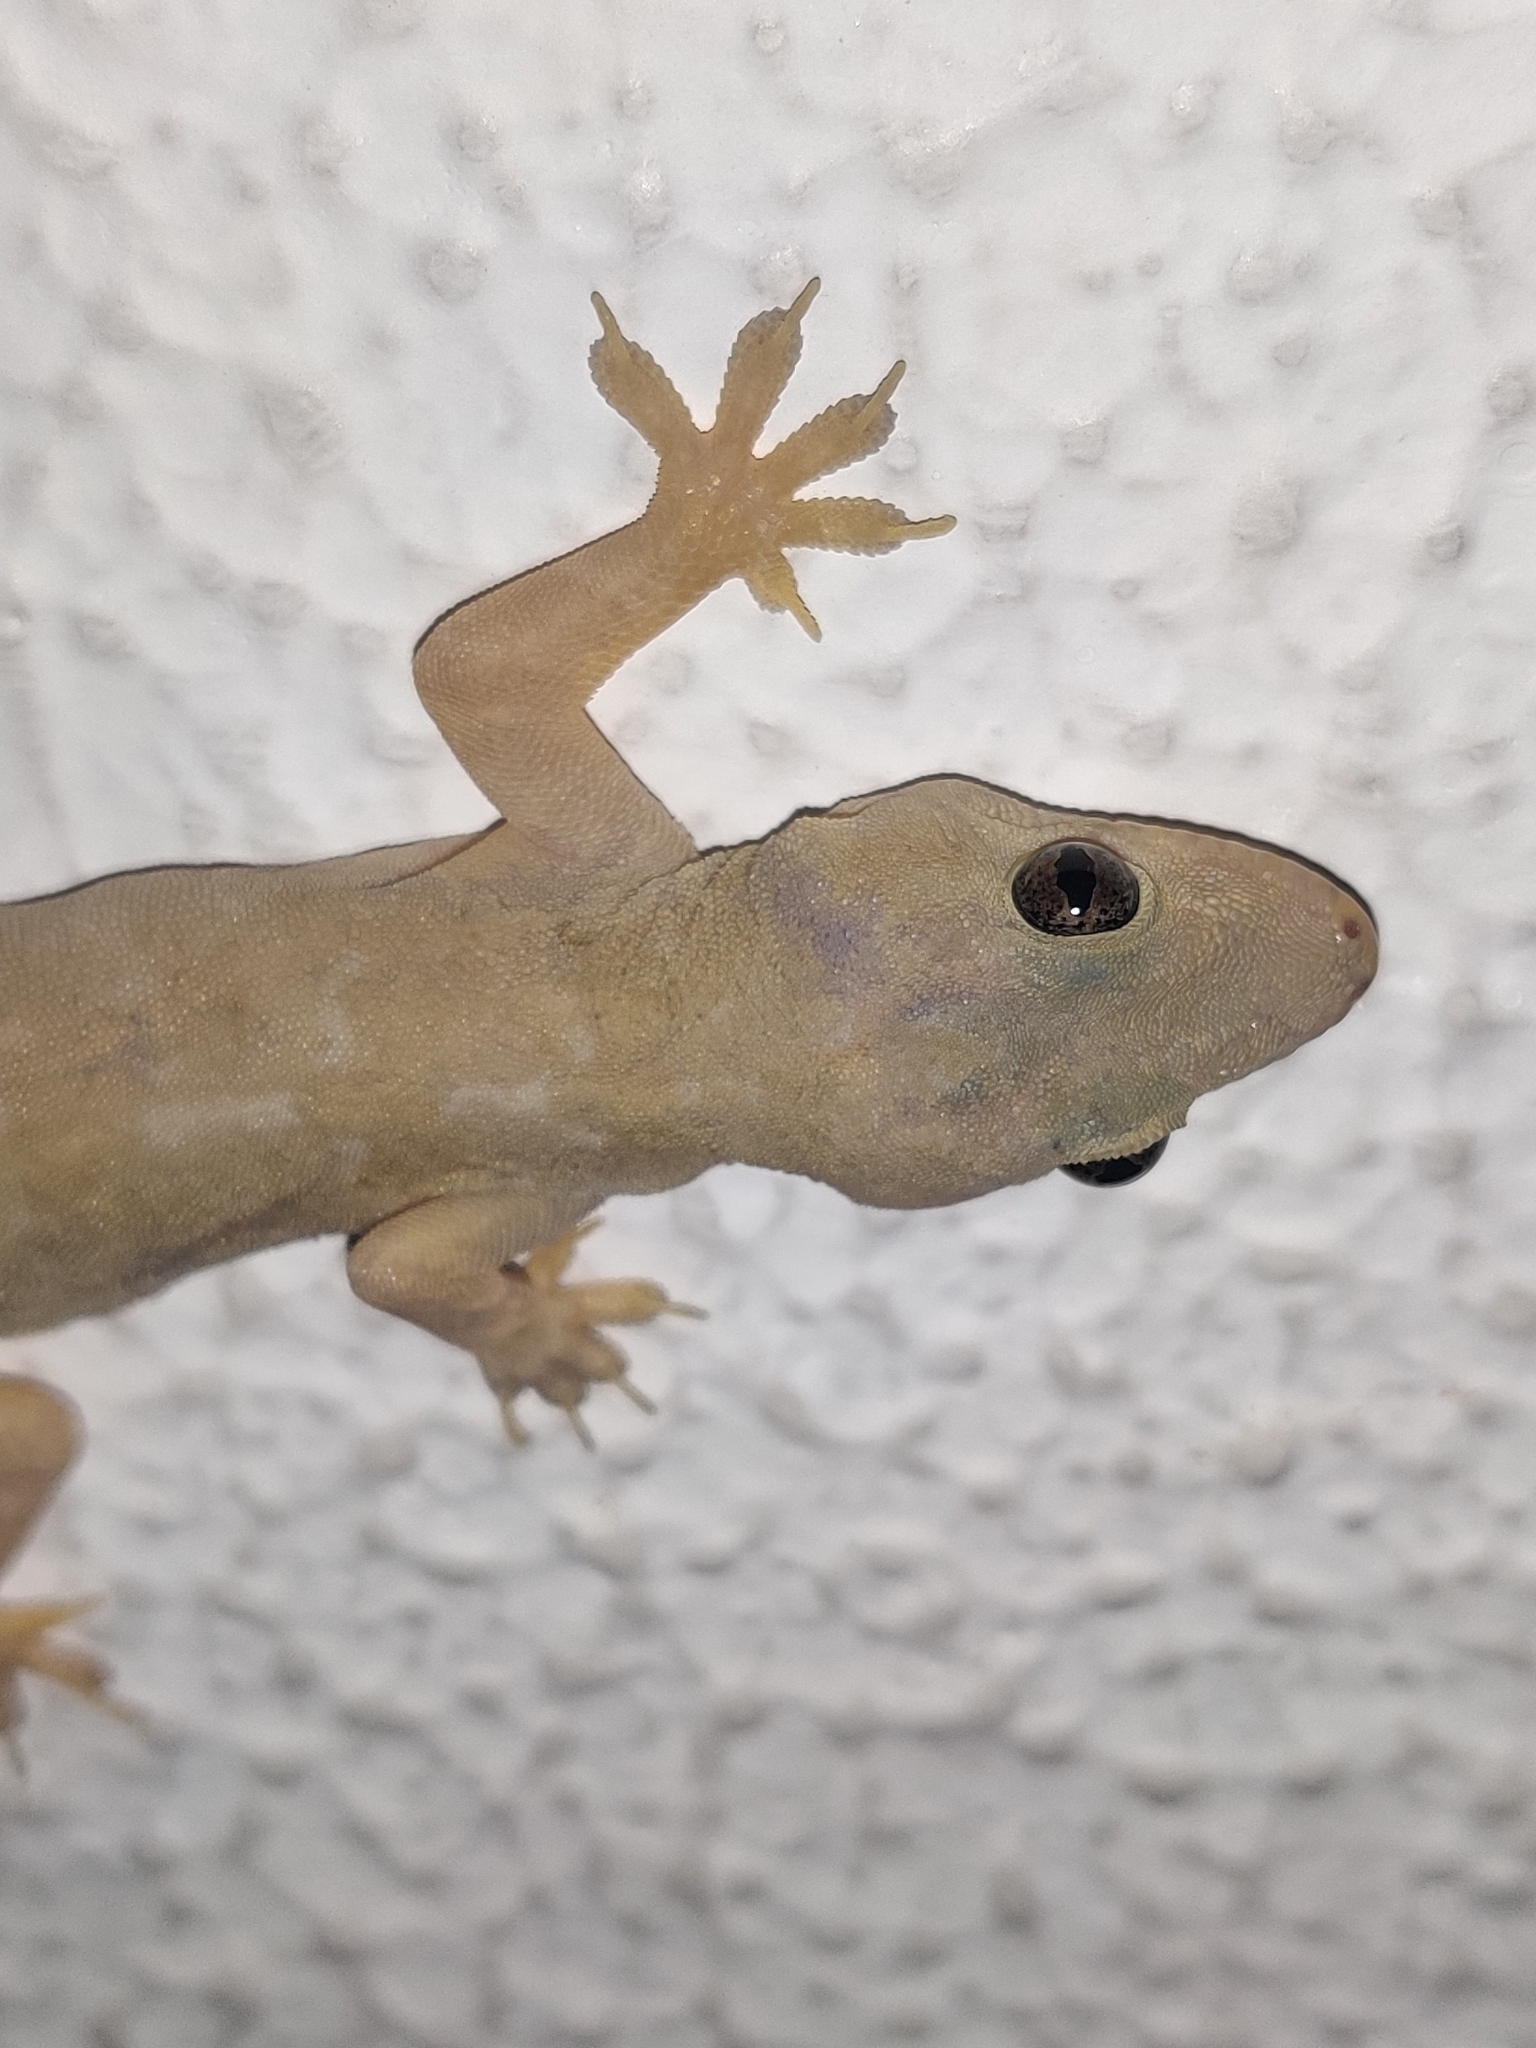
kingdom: Animalia
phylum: Chordata
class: Squamata
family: Gekkonidae
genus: Hemidactylus
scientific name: Hemidactylus flaviviridis
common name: Northern house gecko
